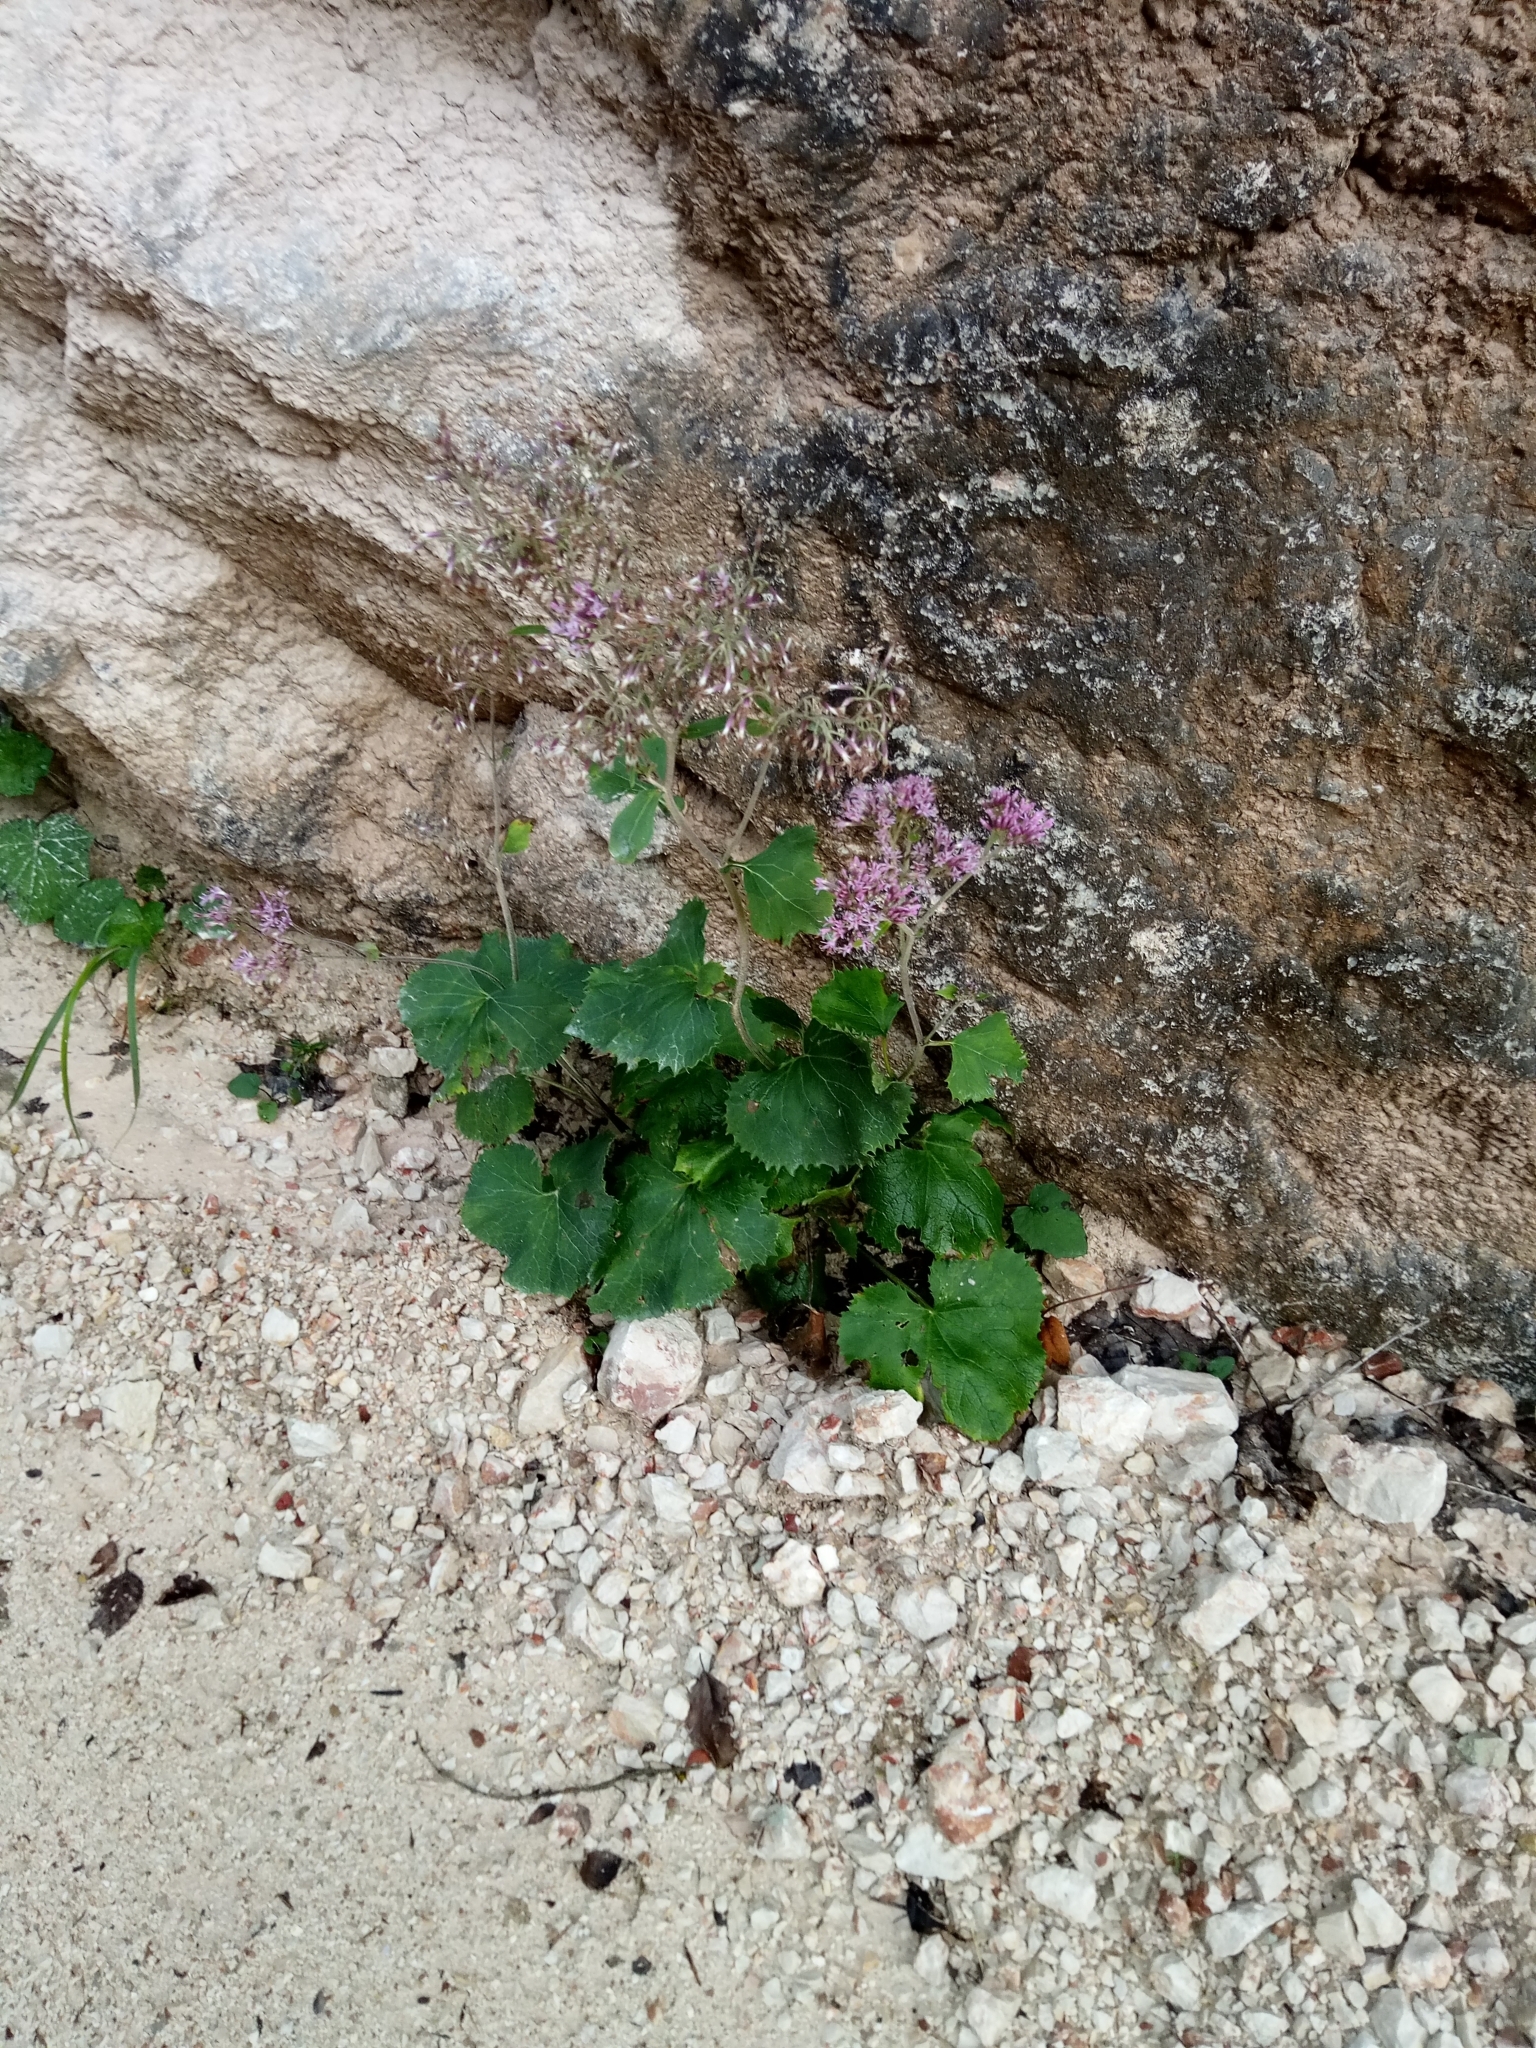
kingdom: Plantae
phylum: Tracheophyta
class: Magnoliopsida
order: Asterales
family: Asteraceae
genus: Adenostyles
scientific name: Adenostyles alpina
